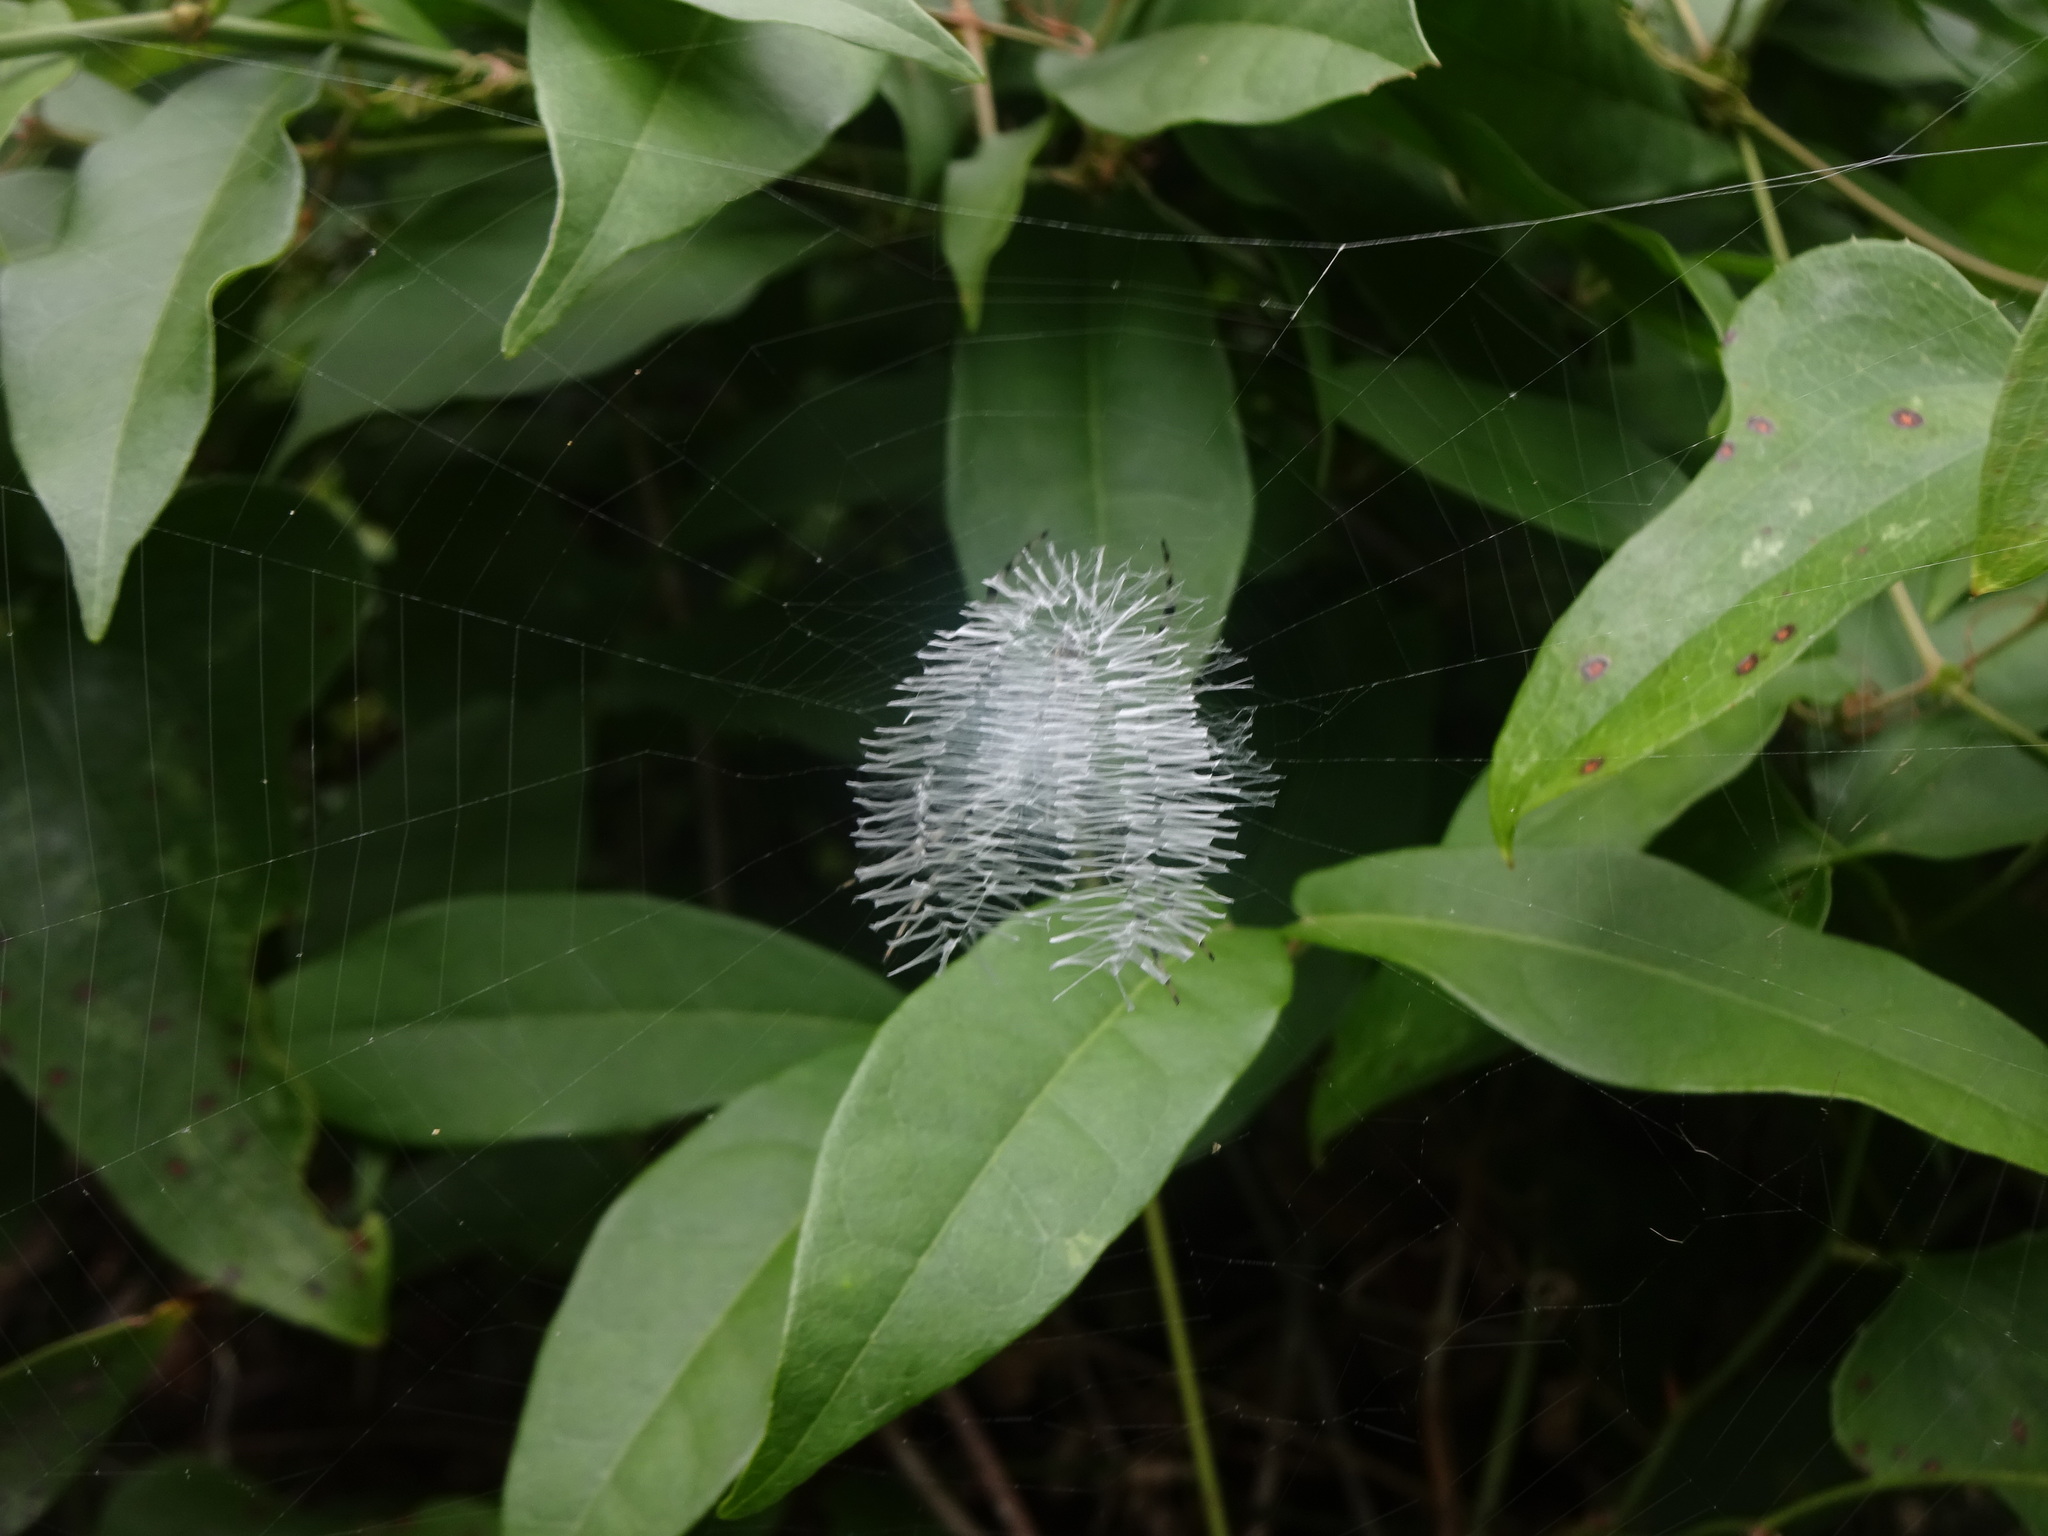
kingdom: Animalia
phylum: Arthropoda
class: Arachnida
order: Araneae
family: Araneidae
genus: Argiope
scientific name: Argiope aurantia
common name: Orb weavers
